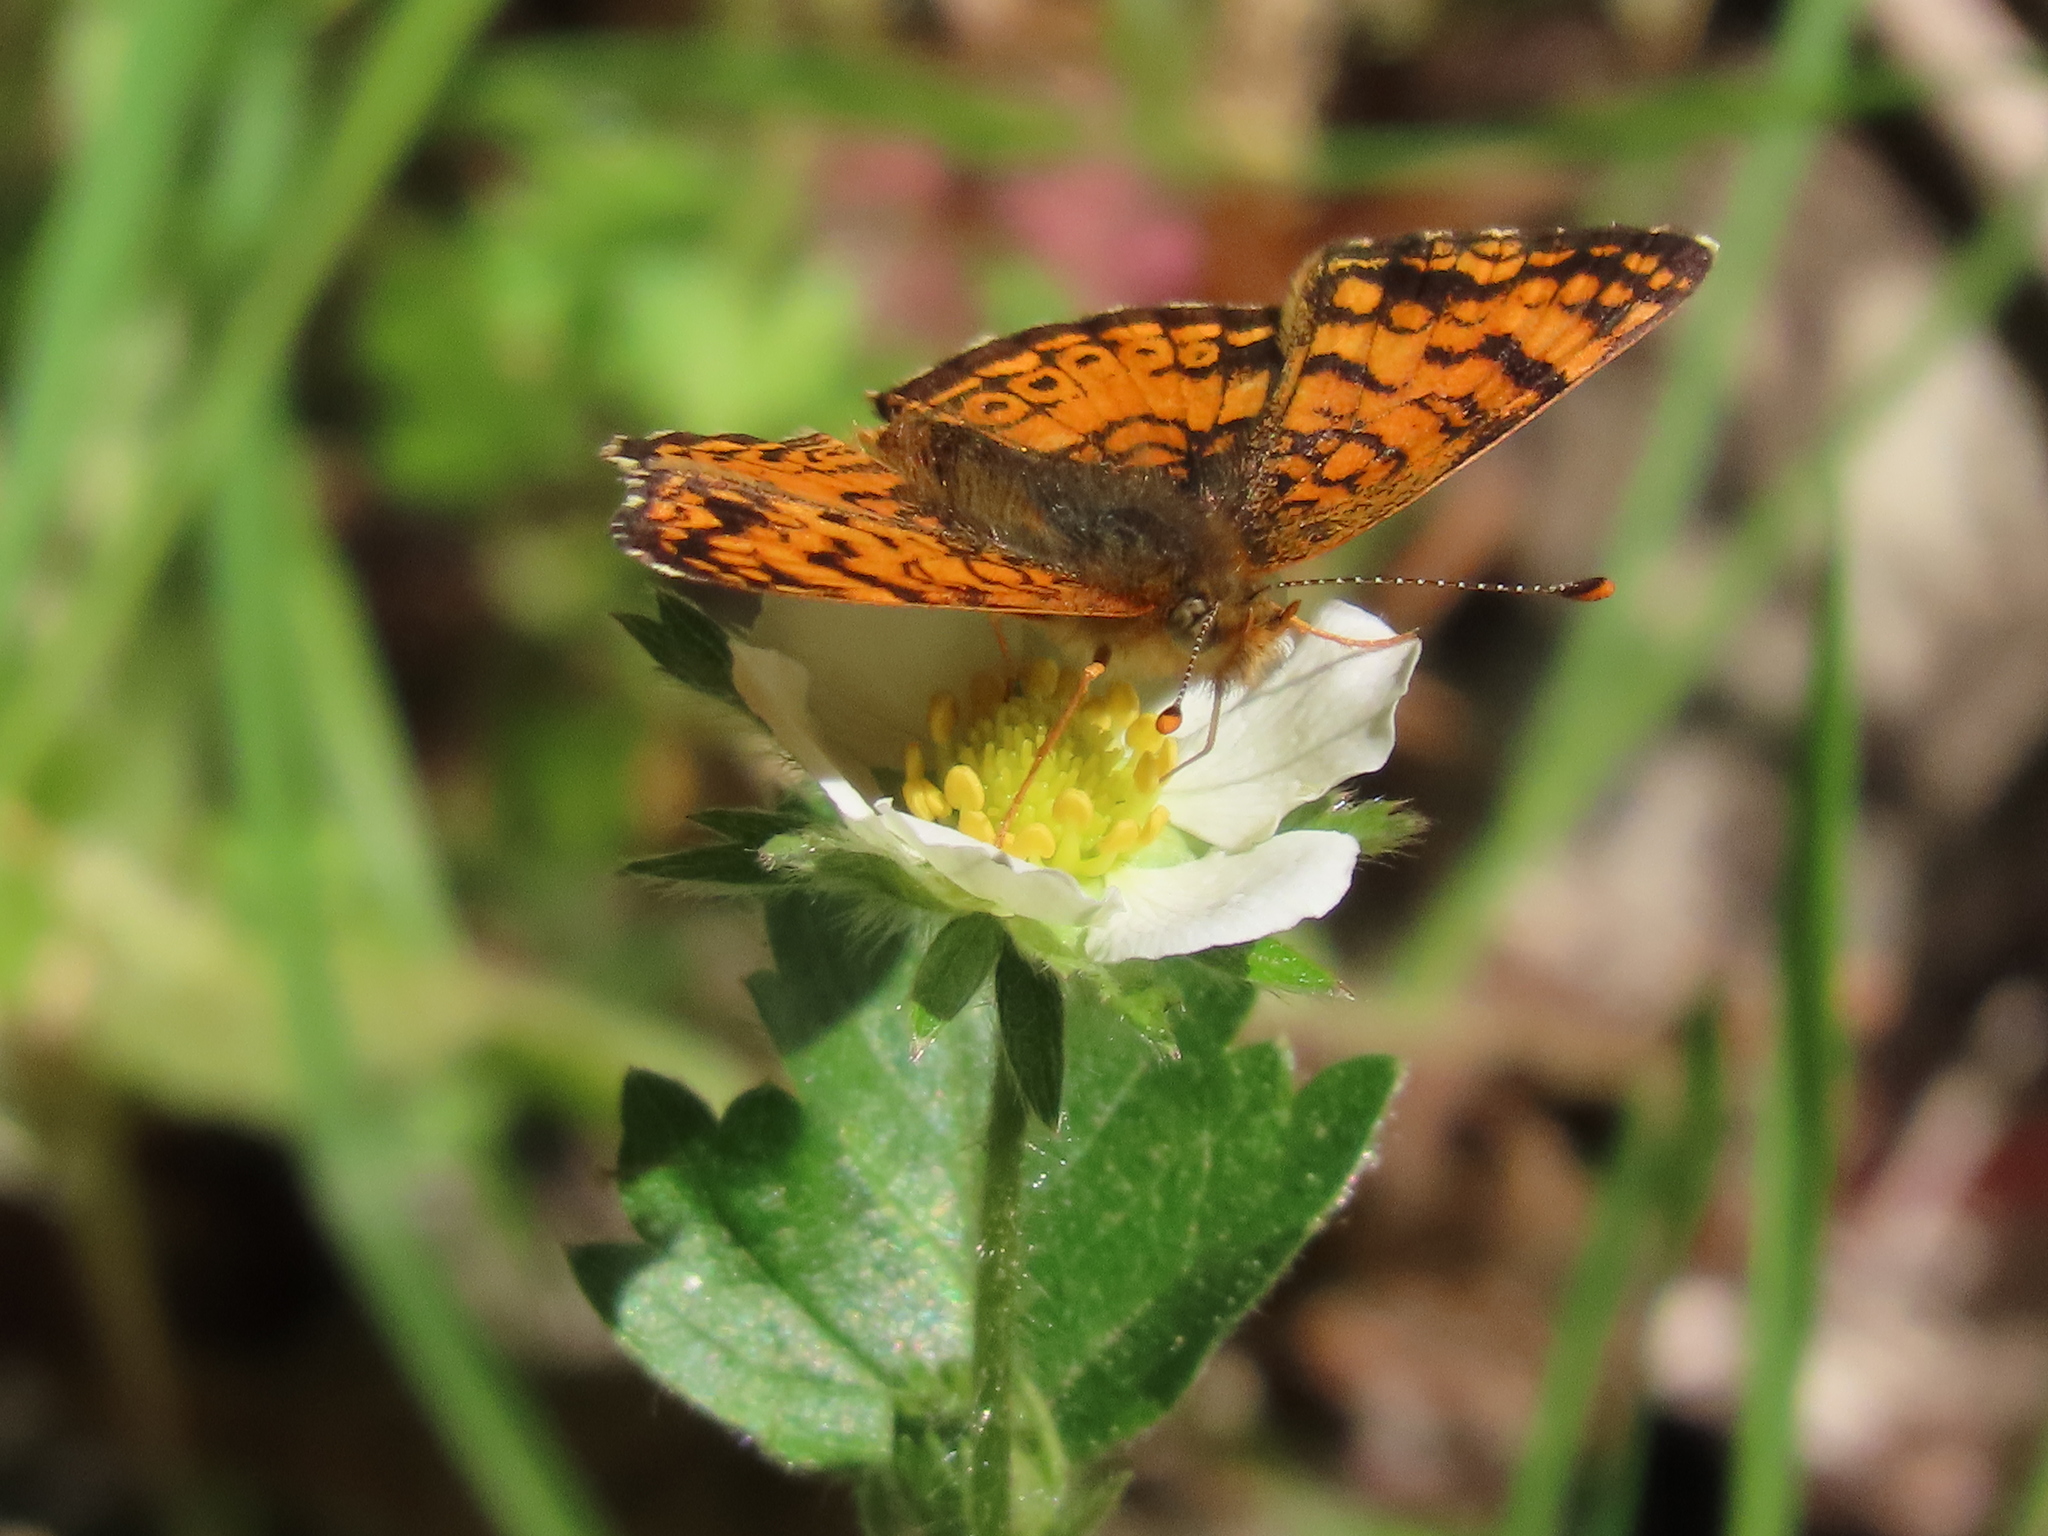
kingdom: Animalia
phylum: Arthropoda
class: Insecta
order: Lepidoptera
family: Nymphalidae
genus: Eresia
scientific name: Eresia aveyrona
